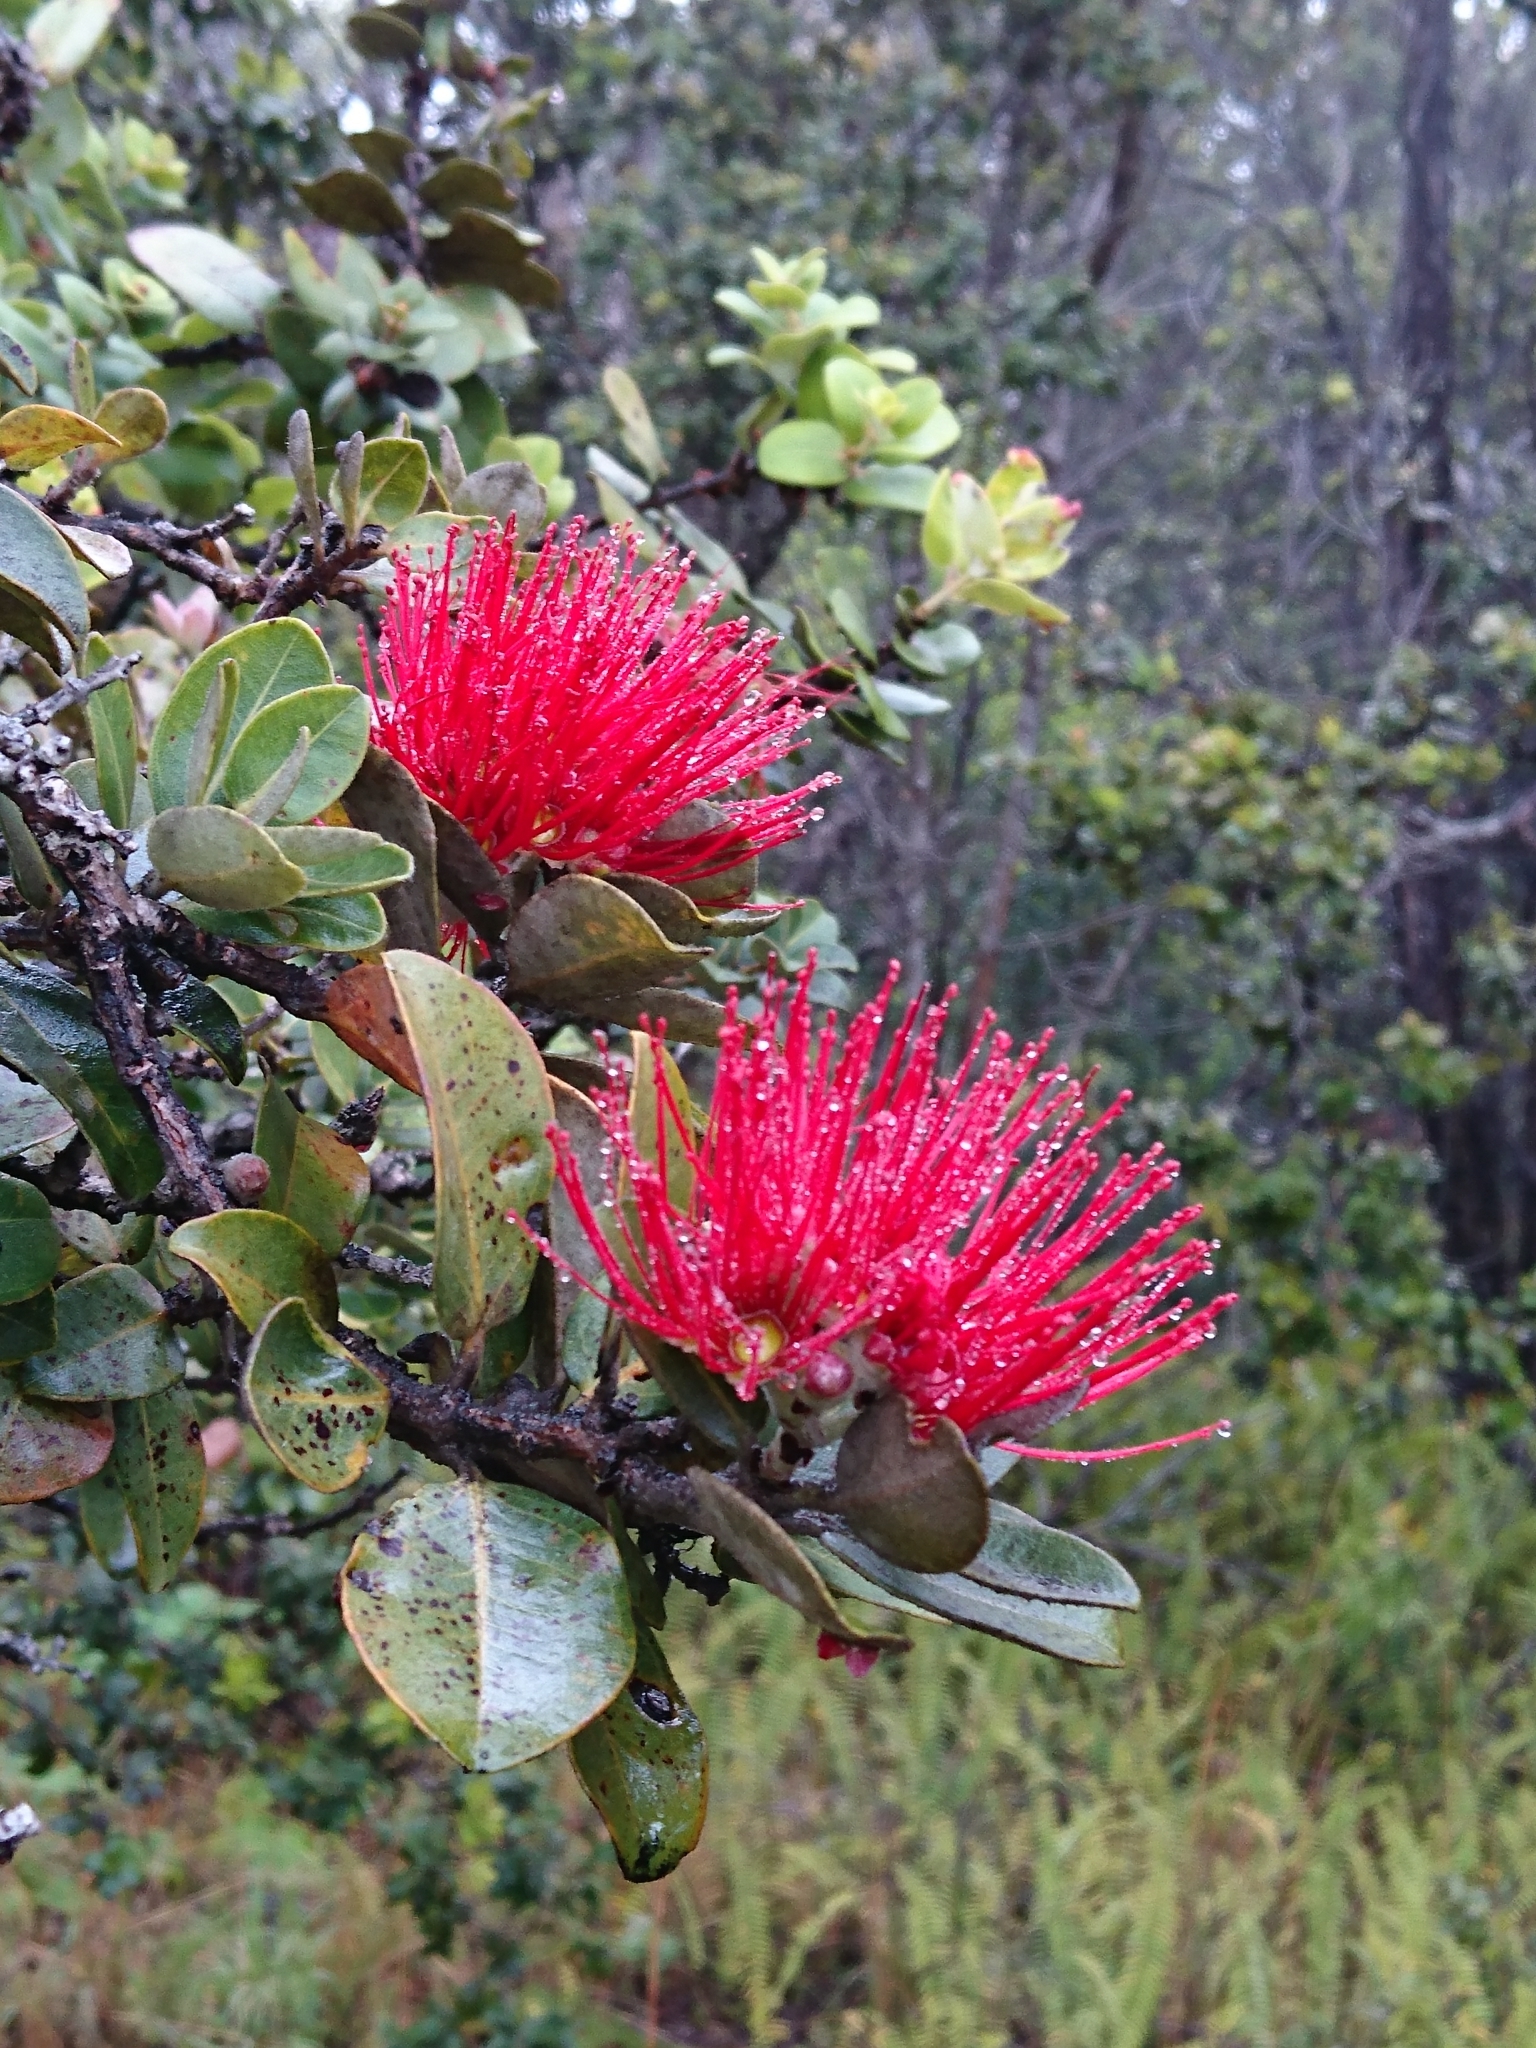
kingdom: Plantae
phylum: Tracheophyta
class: Magnoliopsida
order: Myrtales
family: Myrtaceae
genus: Metrosideros
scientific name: Metrosideros polymorpha
